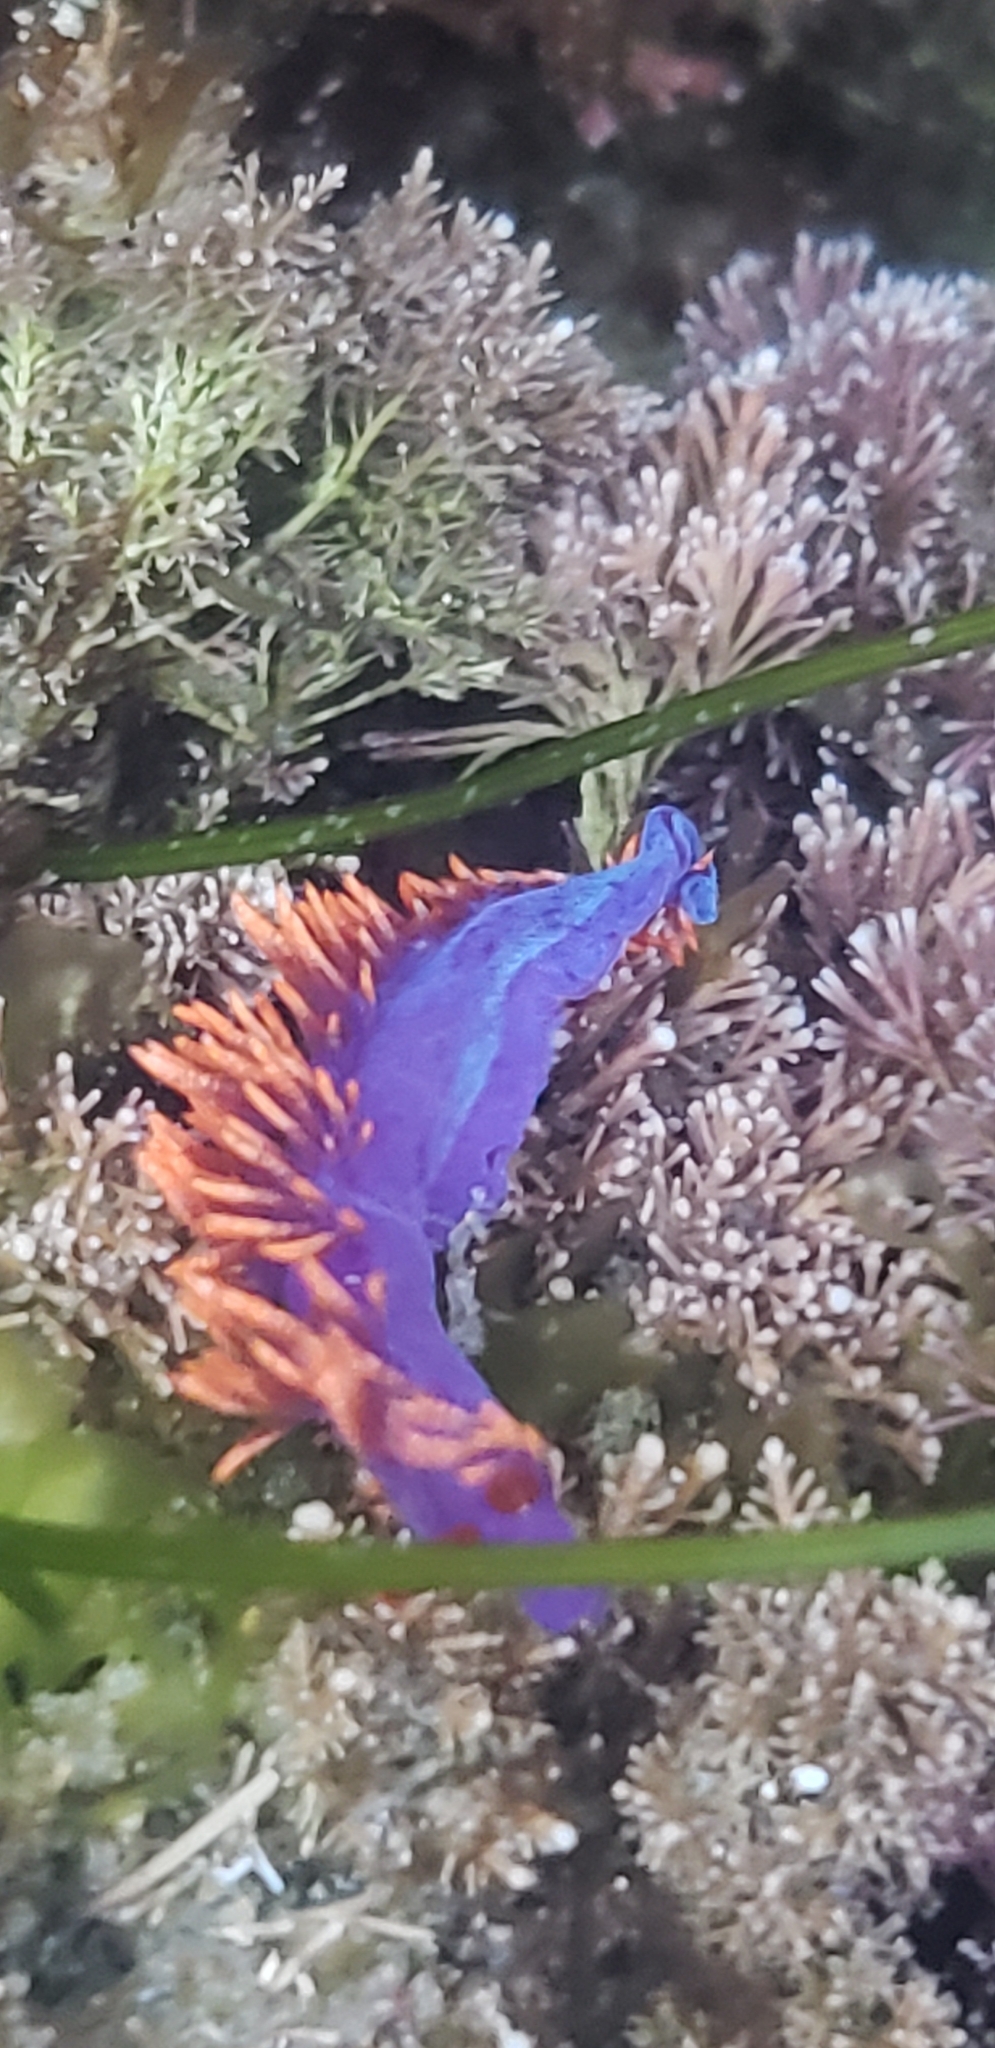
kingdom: Animalia
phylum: Mollusca
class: Gastropoda
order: Nudibranchia
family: Flabellinopsidae
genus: Flabellinopsis
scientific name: Flabellinopsis iodinea
